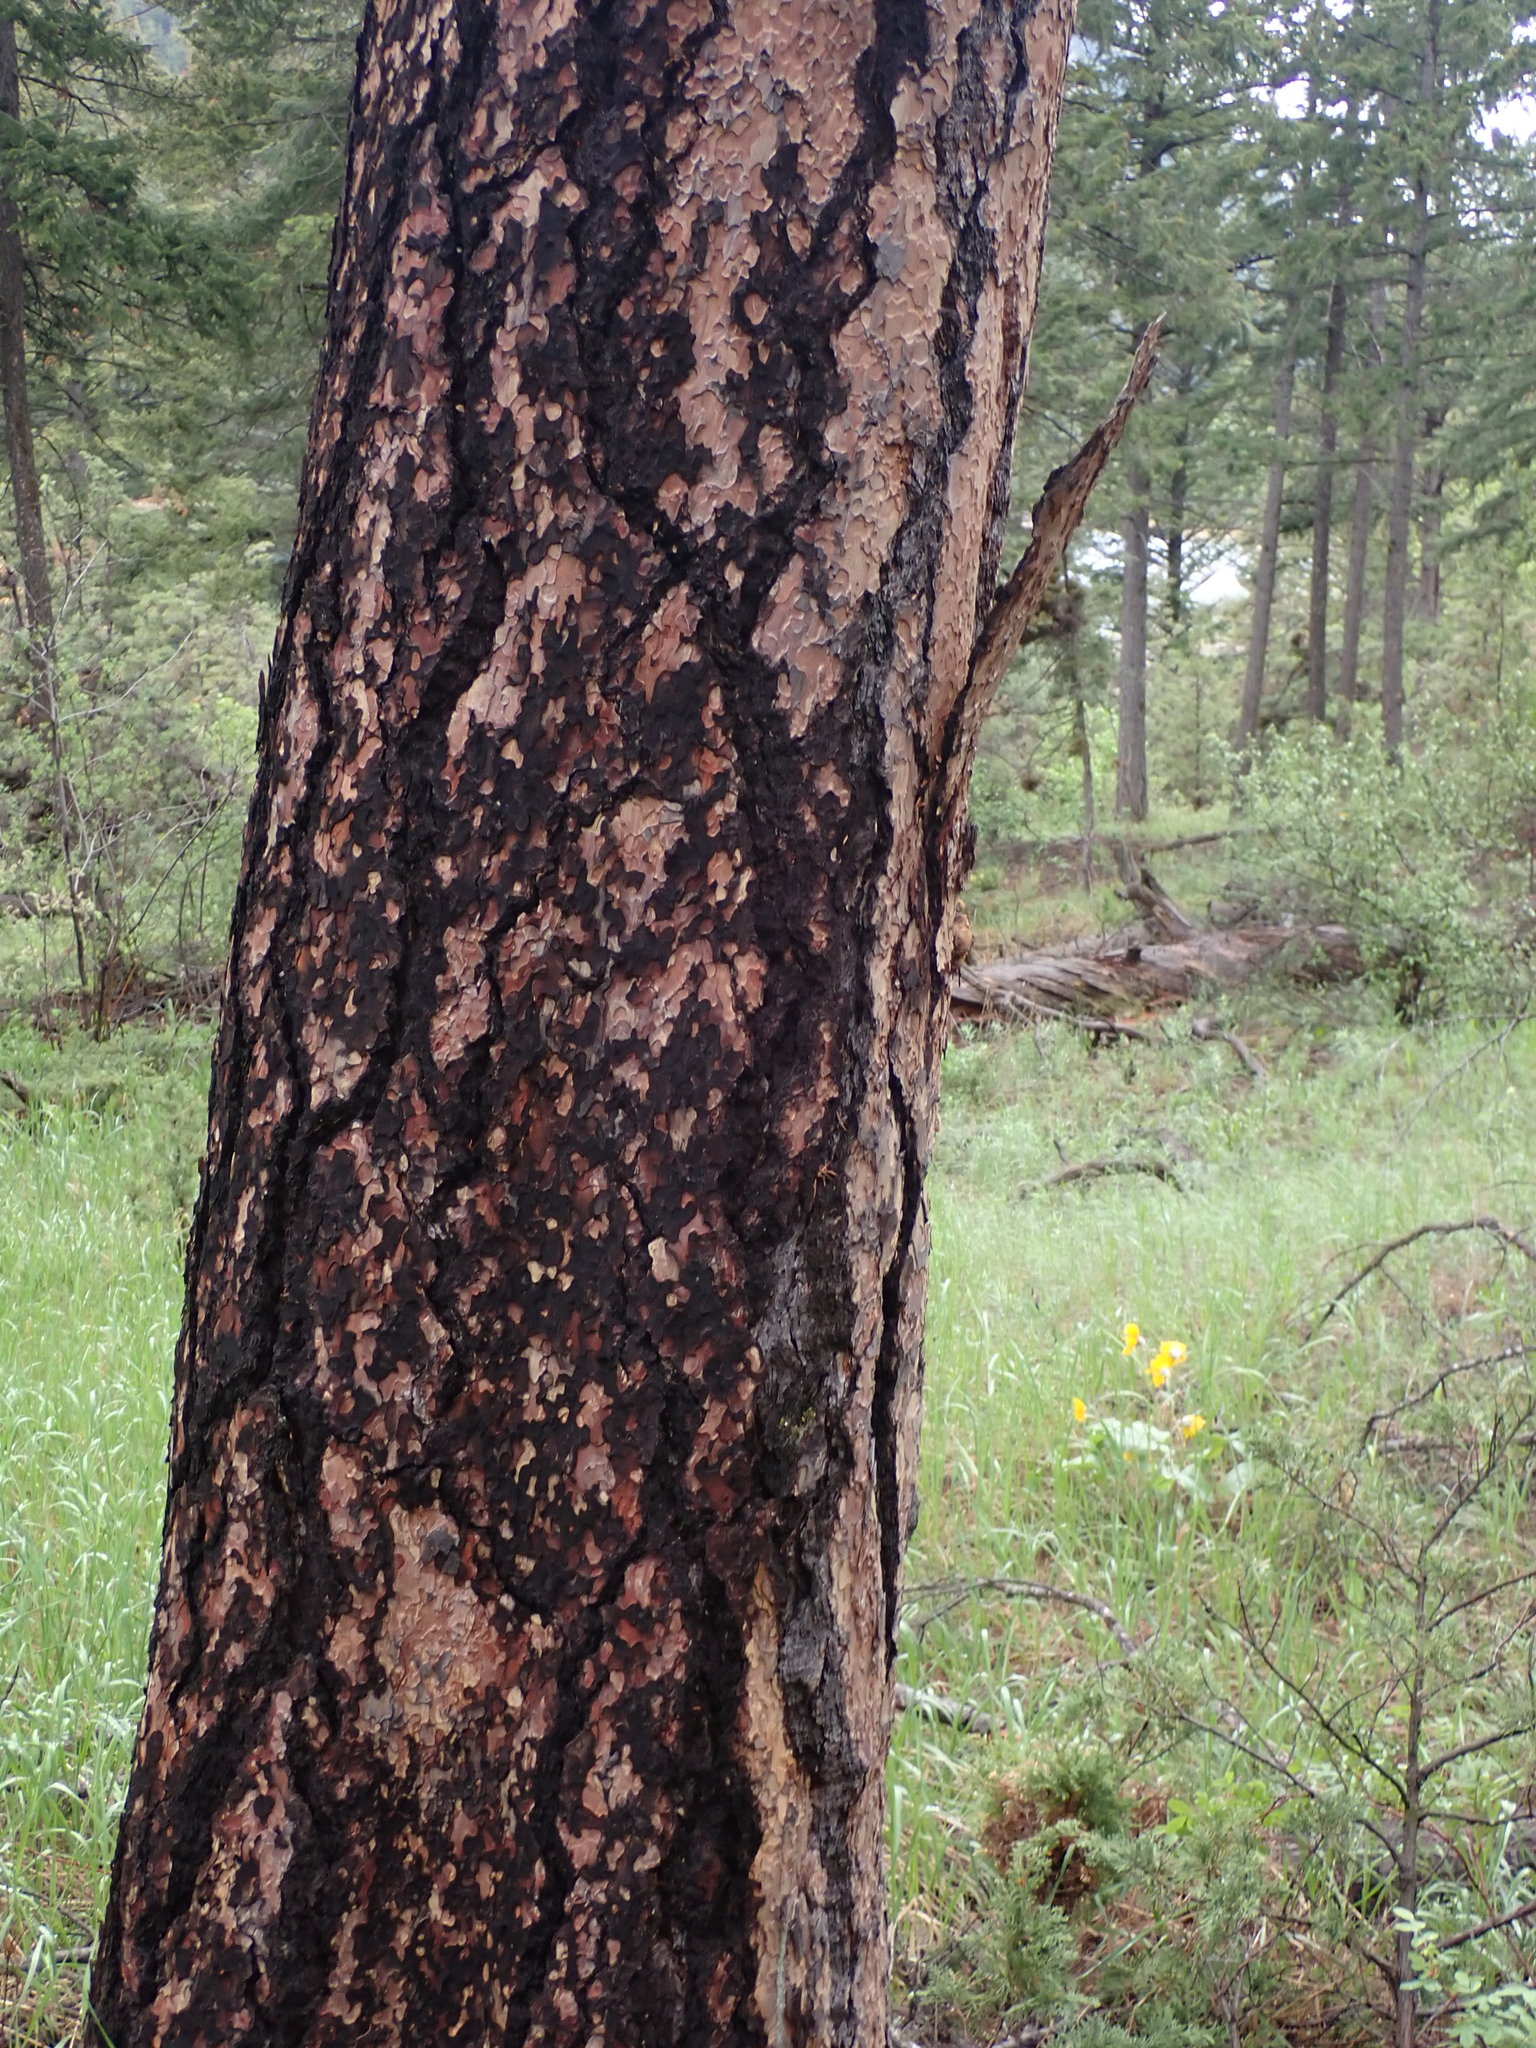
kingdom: Plantae
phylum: Tracheophyta
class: Pinopsida
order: Pinales
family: Pinaceae
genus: Pinus
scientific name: Pinus ponderosa
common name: Western yellow-pine
